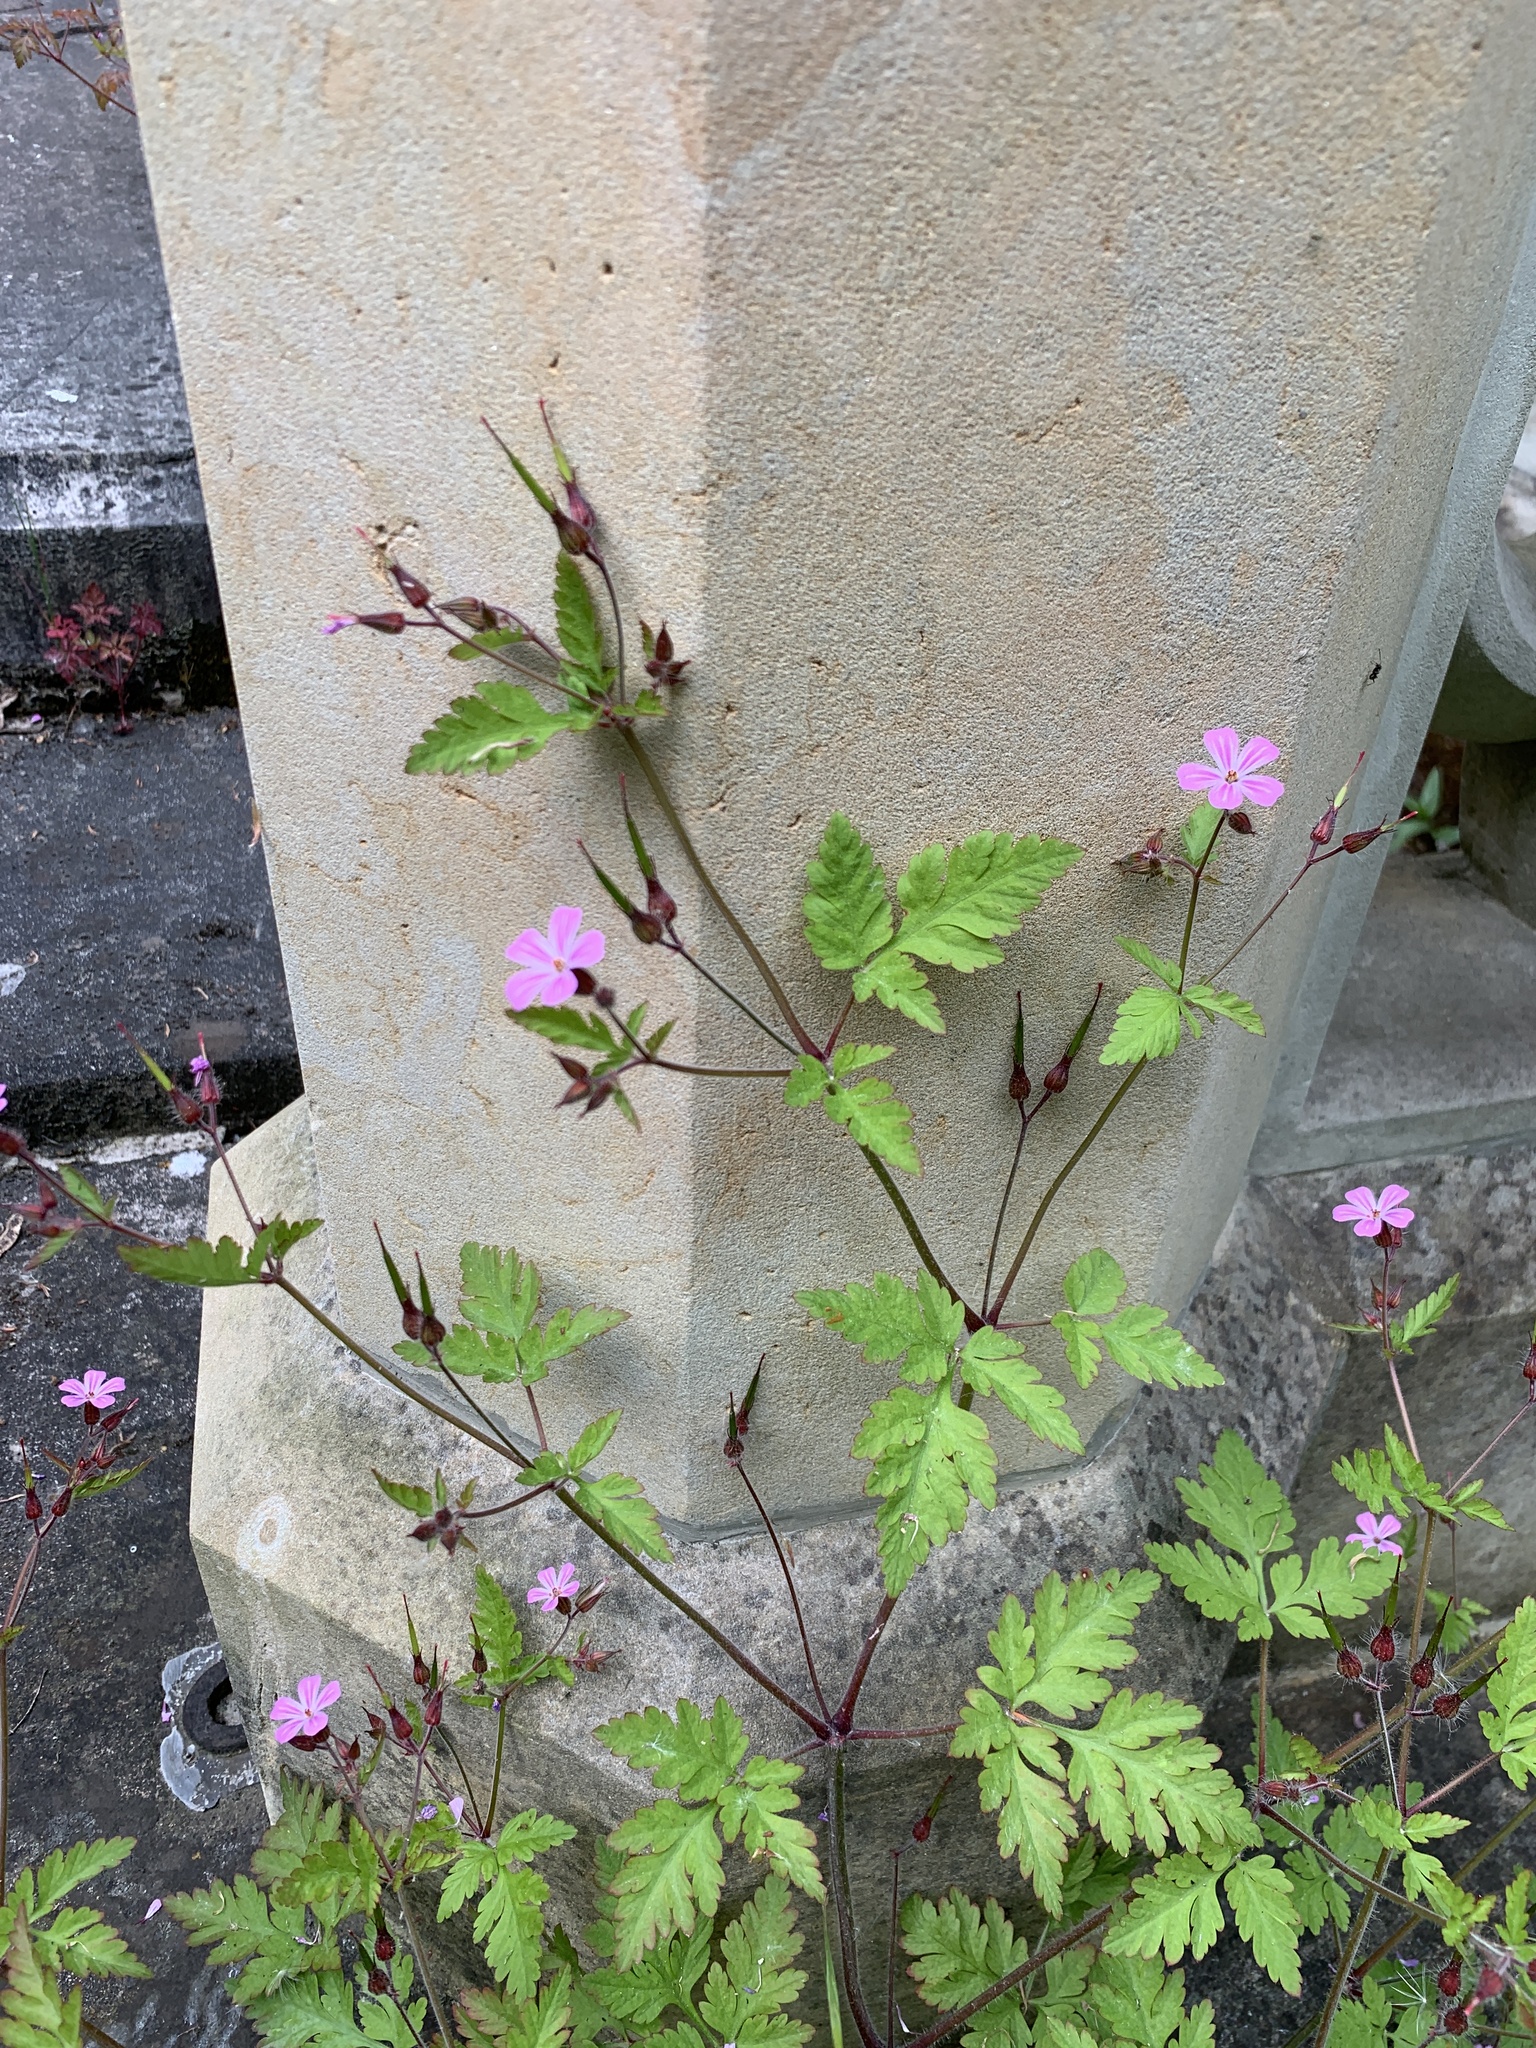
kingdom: Plantae
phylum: Tracheophyta
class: Magnoliopsida
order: Geraniales
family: Geraniaceae
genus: Geranium
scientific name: Geranium robertianum
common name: Herb-robert
